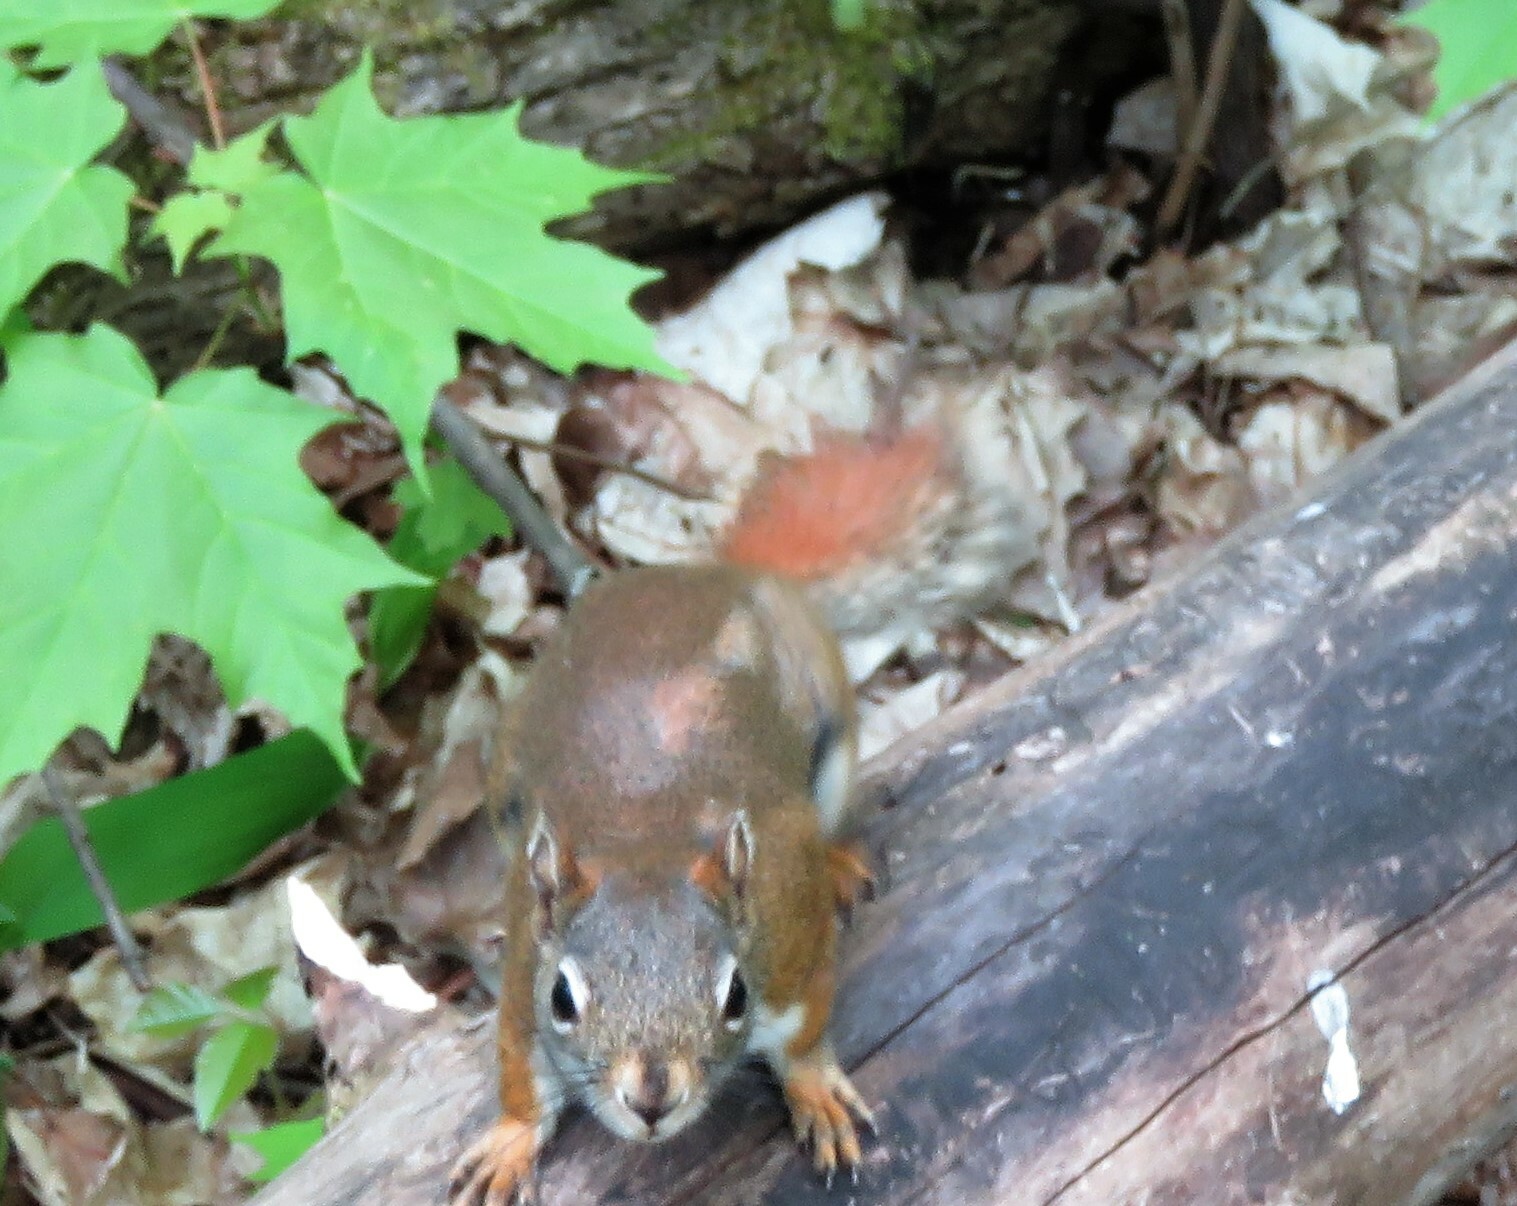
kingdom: Animalia
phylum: Chordata
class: Mammalia
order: Rodentia
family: Sciuridae
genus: Tamiasciurus
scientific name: Tamiasciurus hudsonicus
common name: Red squirrel
